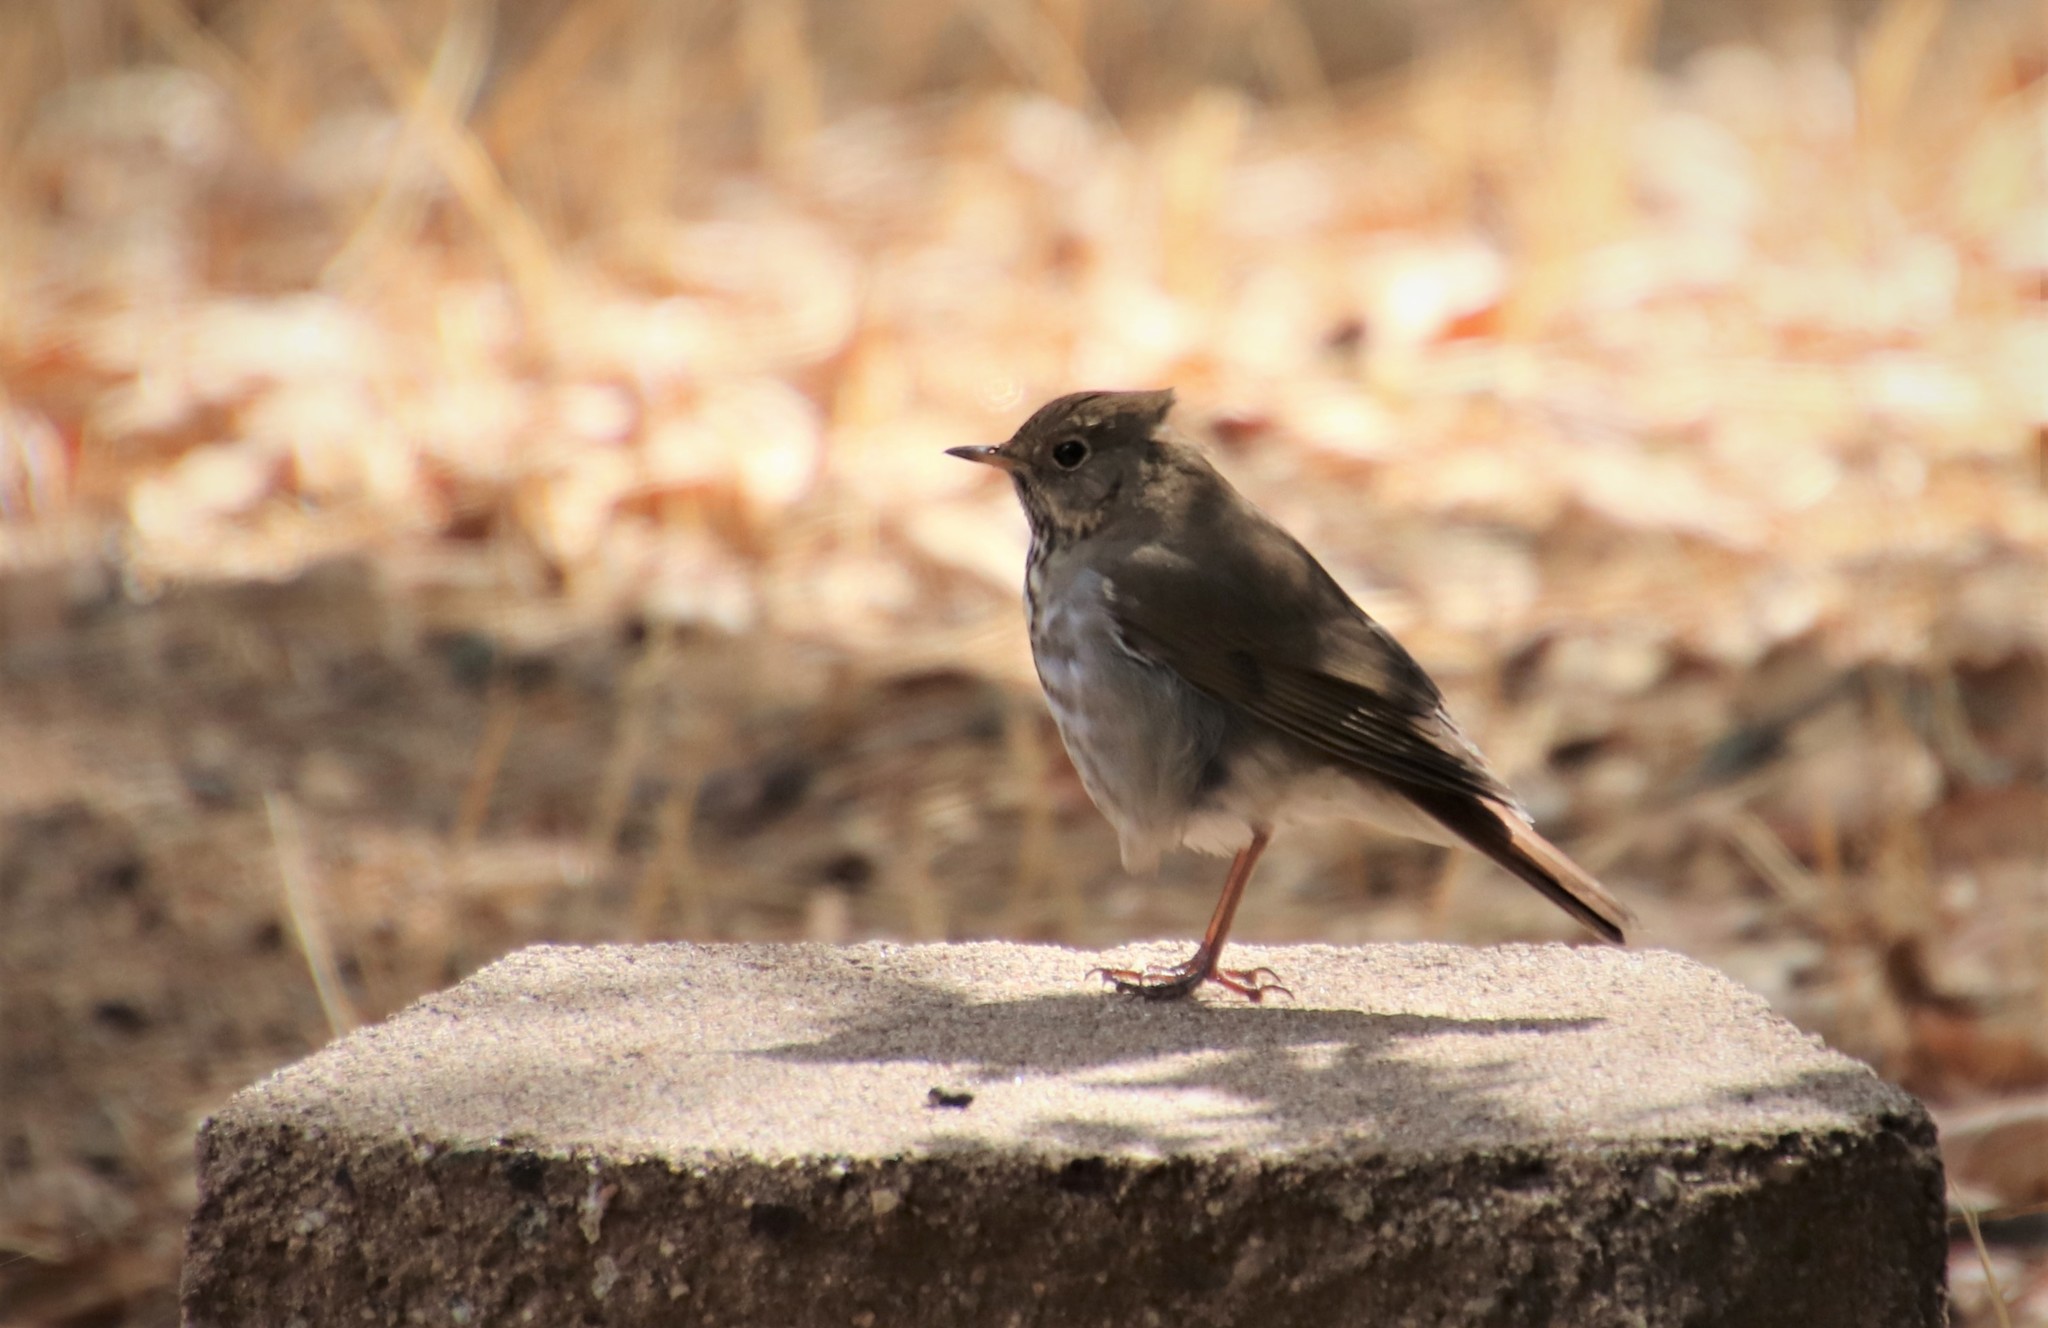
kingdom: Animalia
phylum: Chordata
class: Aves
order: Passeriformes
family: Turdidae
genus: Catharus
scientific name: Catharus guttatus
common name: Hermit thrush
